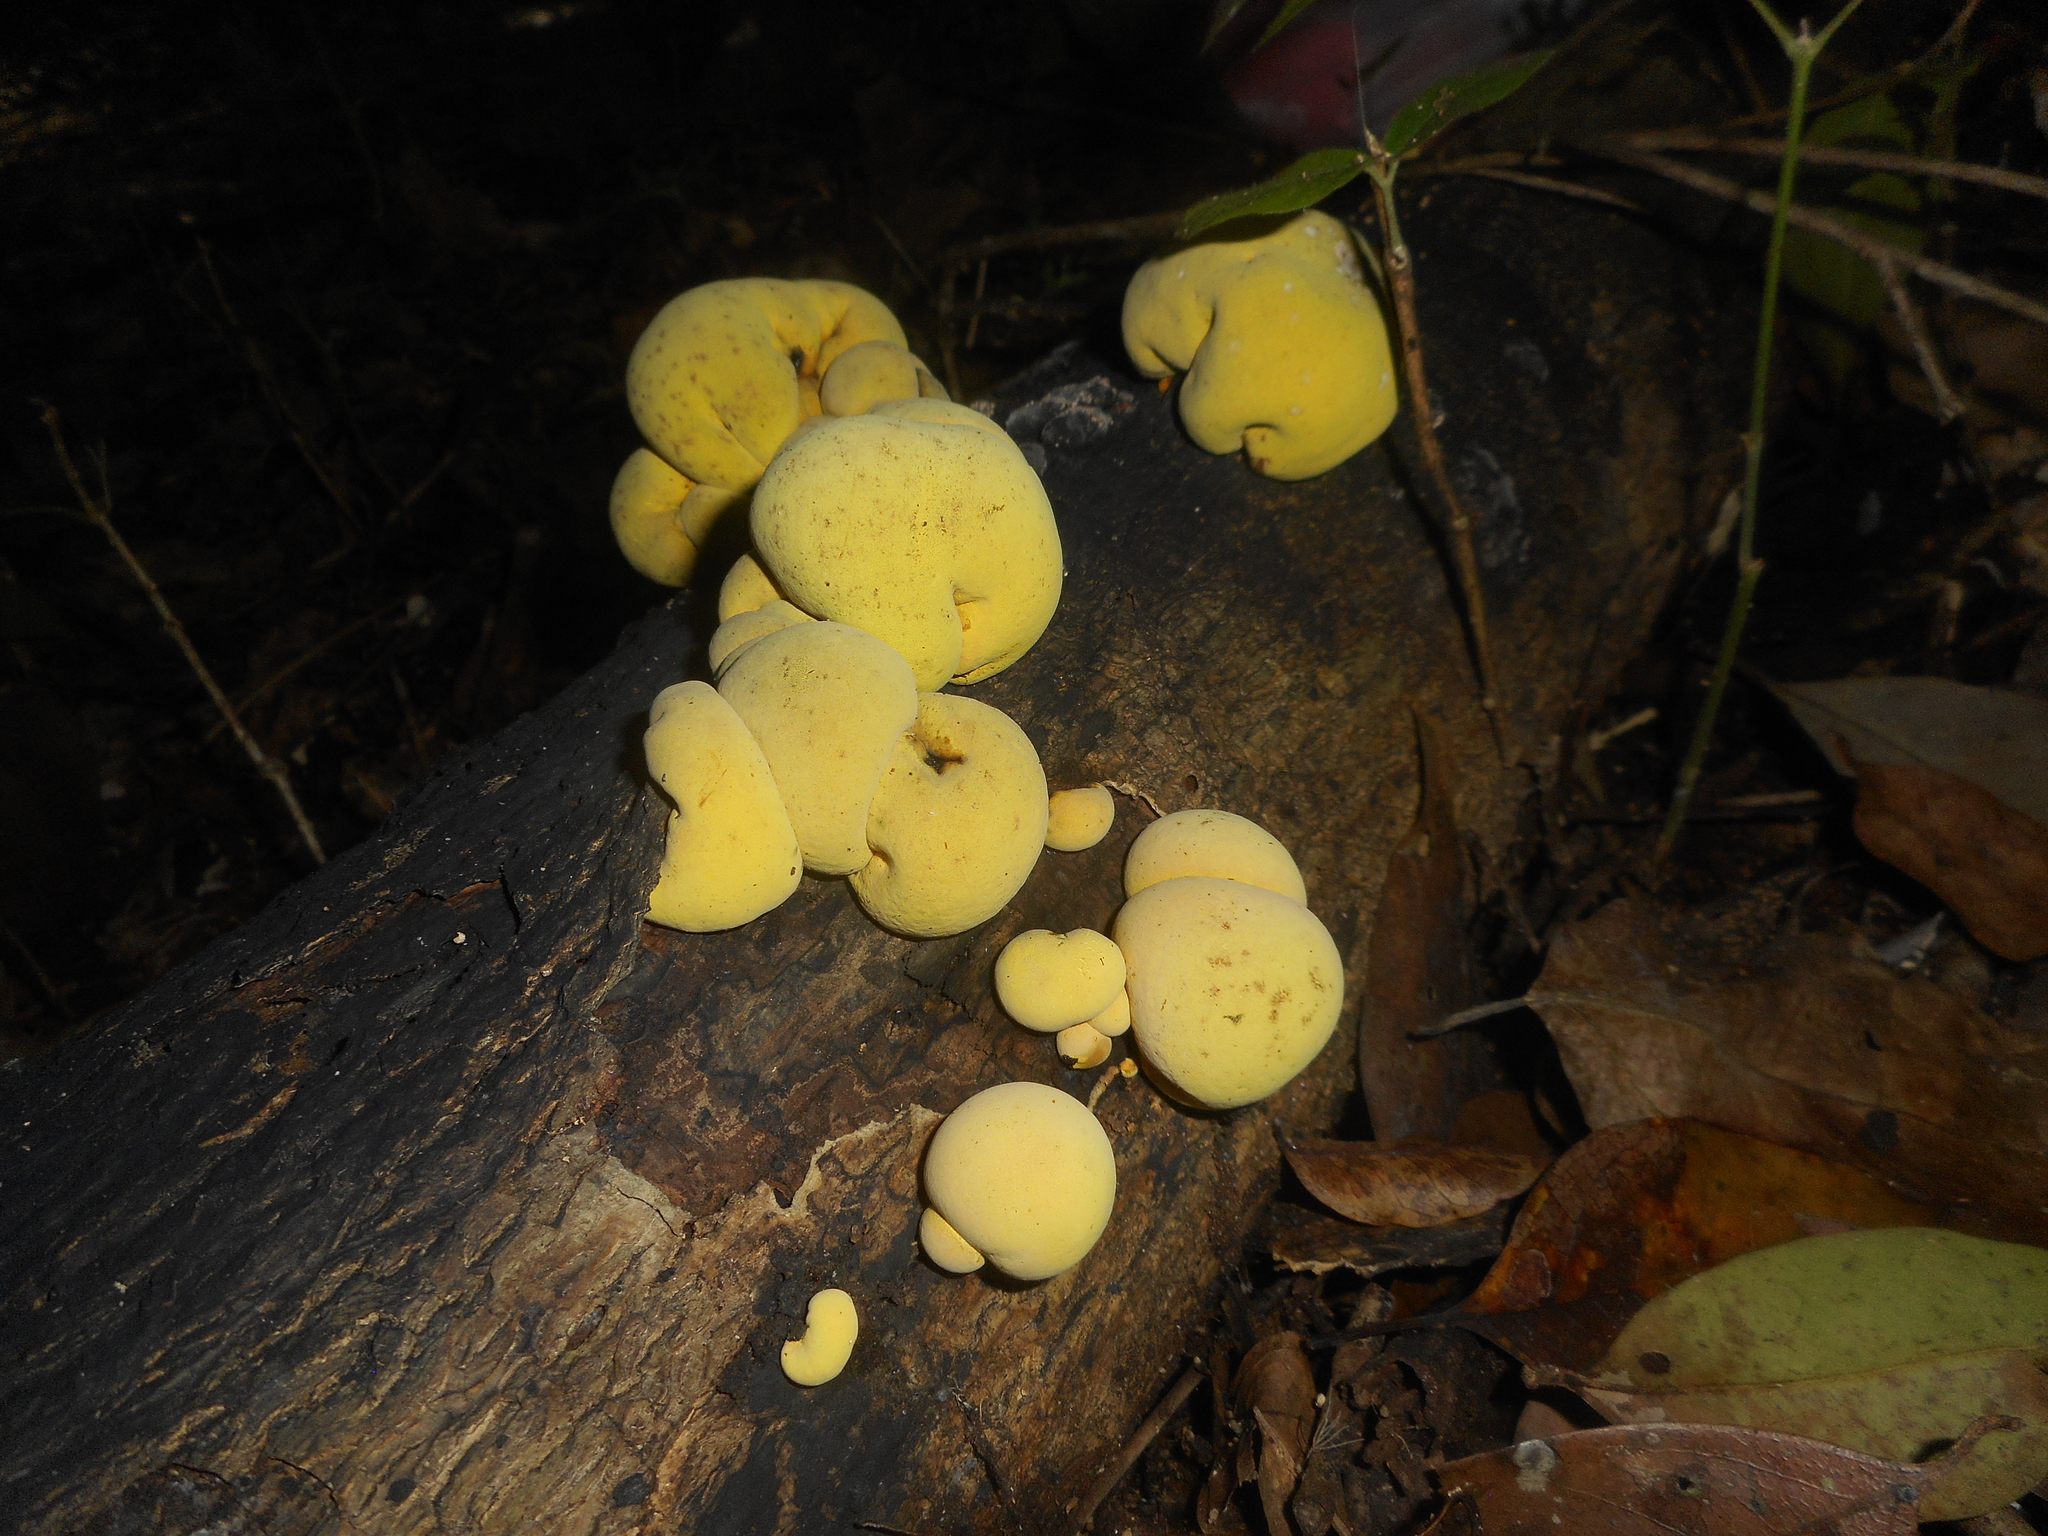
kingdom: Fungi
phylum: Ascomycota
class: Sordariomycetes
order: Xylariales
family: Hypoxylaceae
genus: Entonaema
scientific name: Entonaema liquescens
